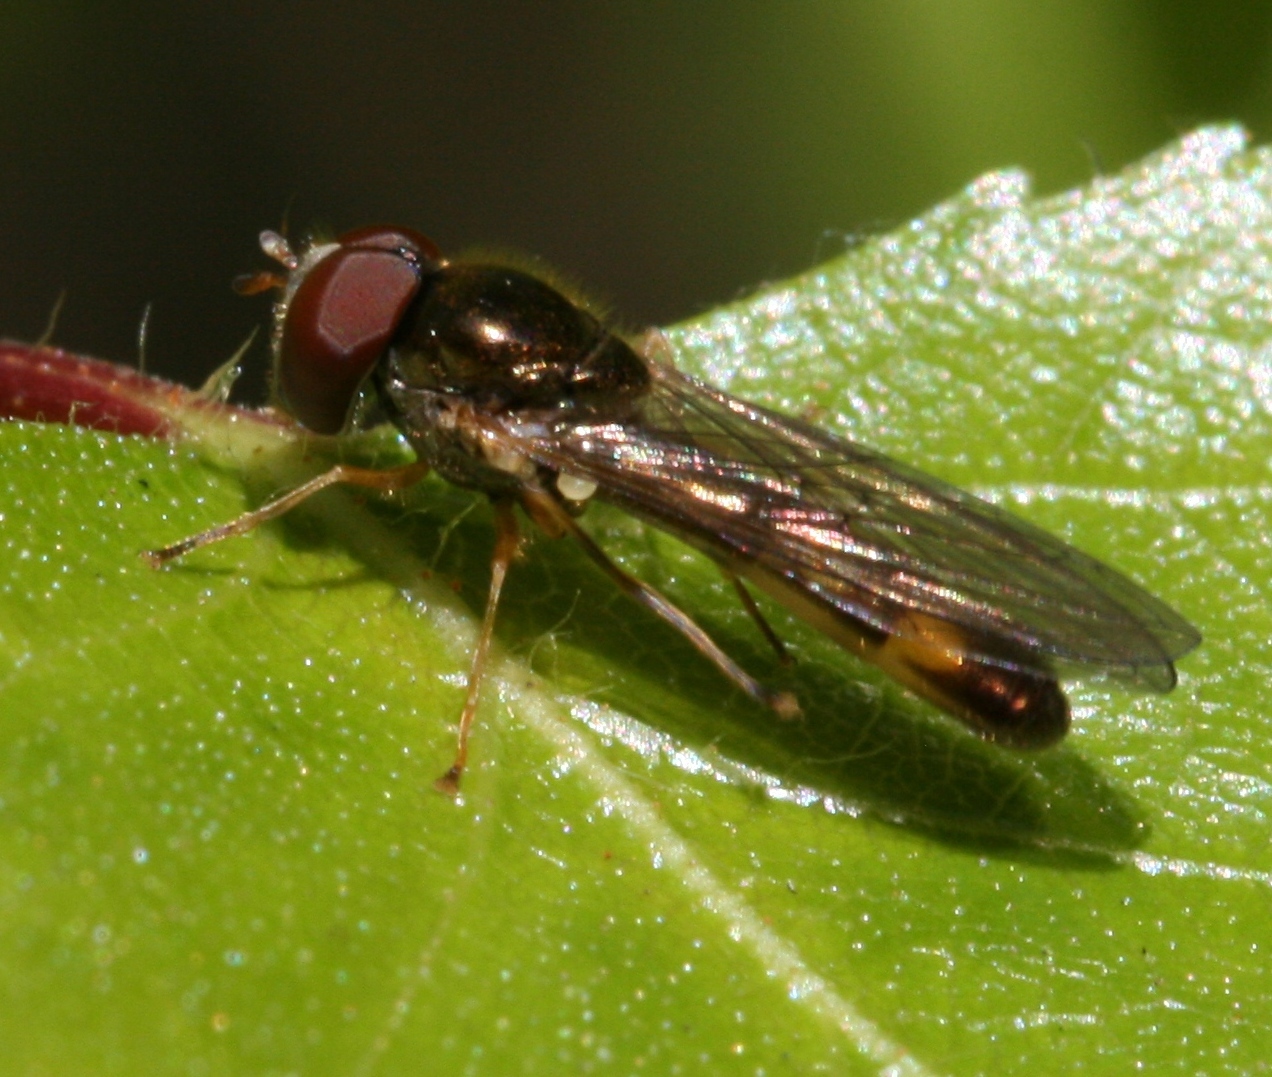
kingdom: Animalia
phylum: Arthropoda
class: Insecta
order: Diptera
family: Syrphidae
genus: Melanostoma
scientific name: Melanostoma scalare
